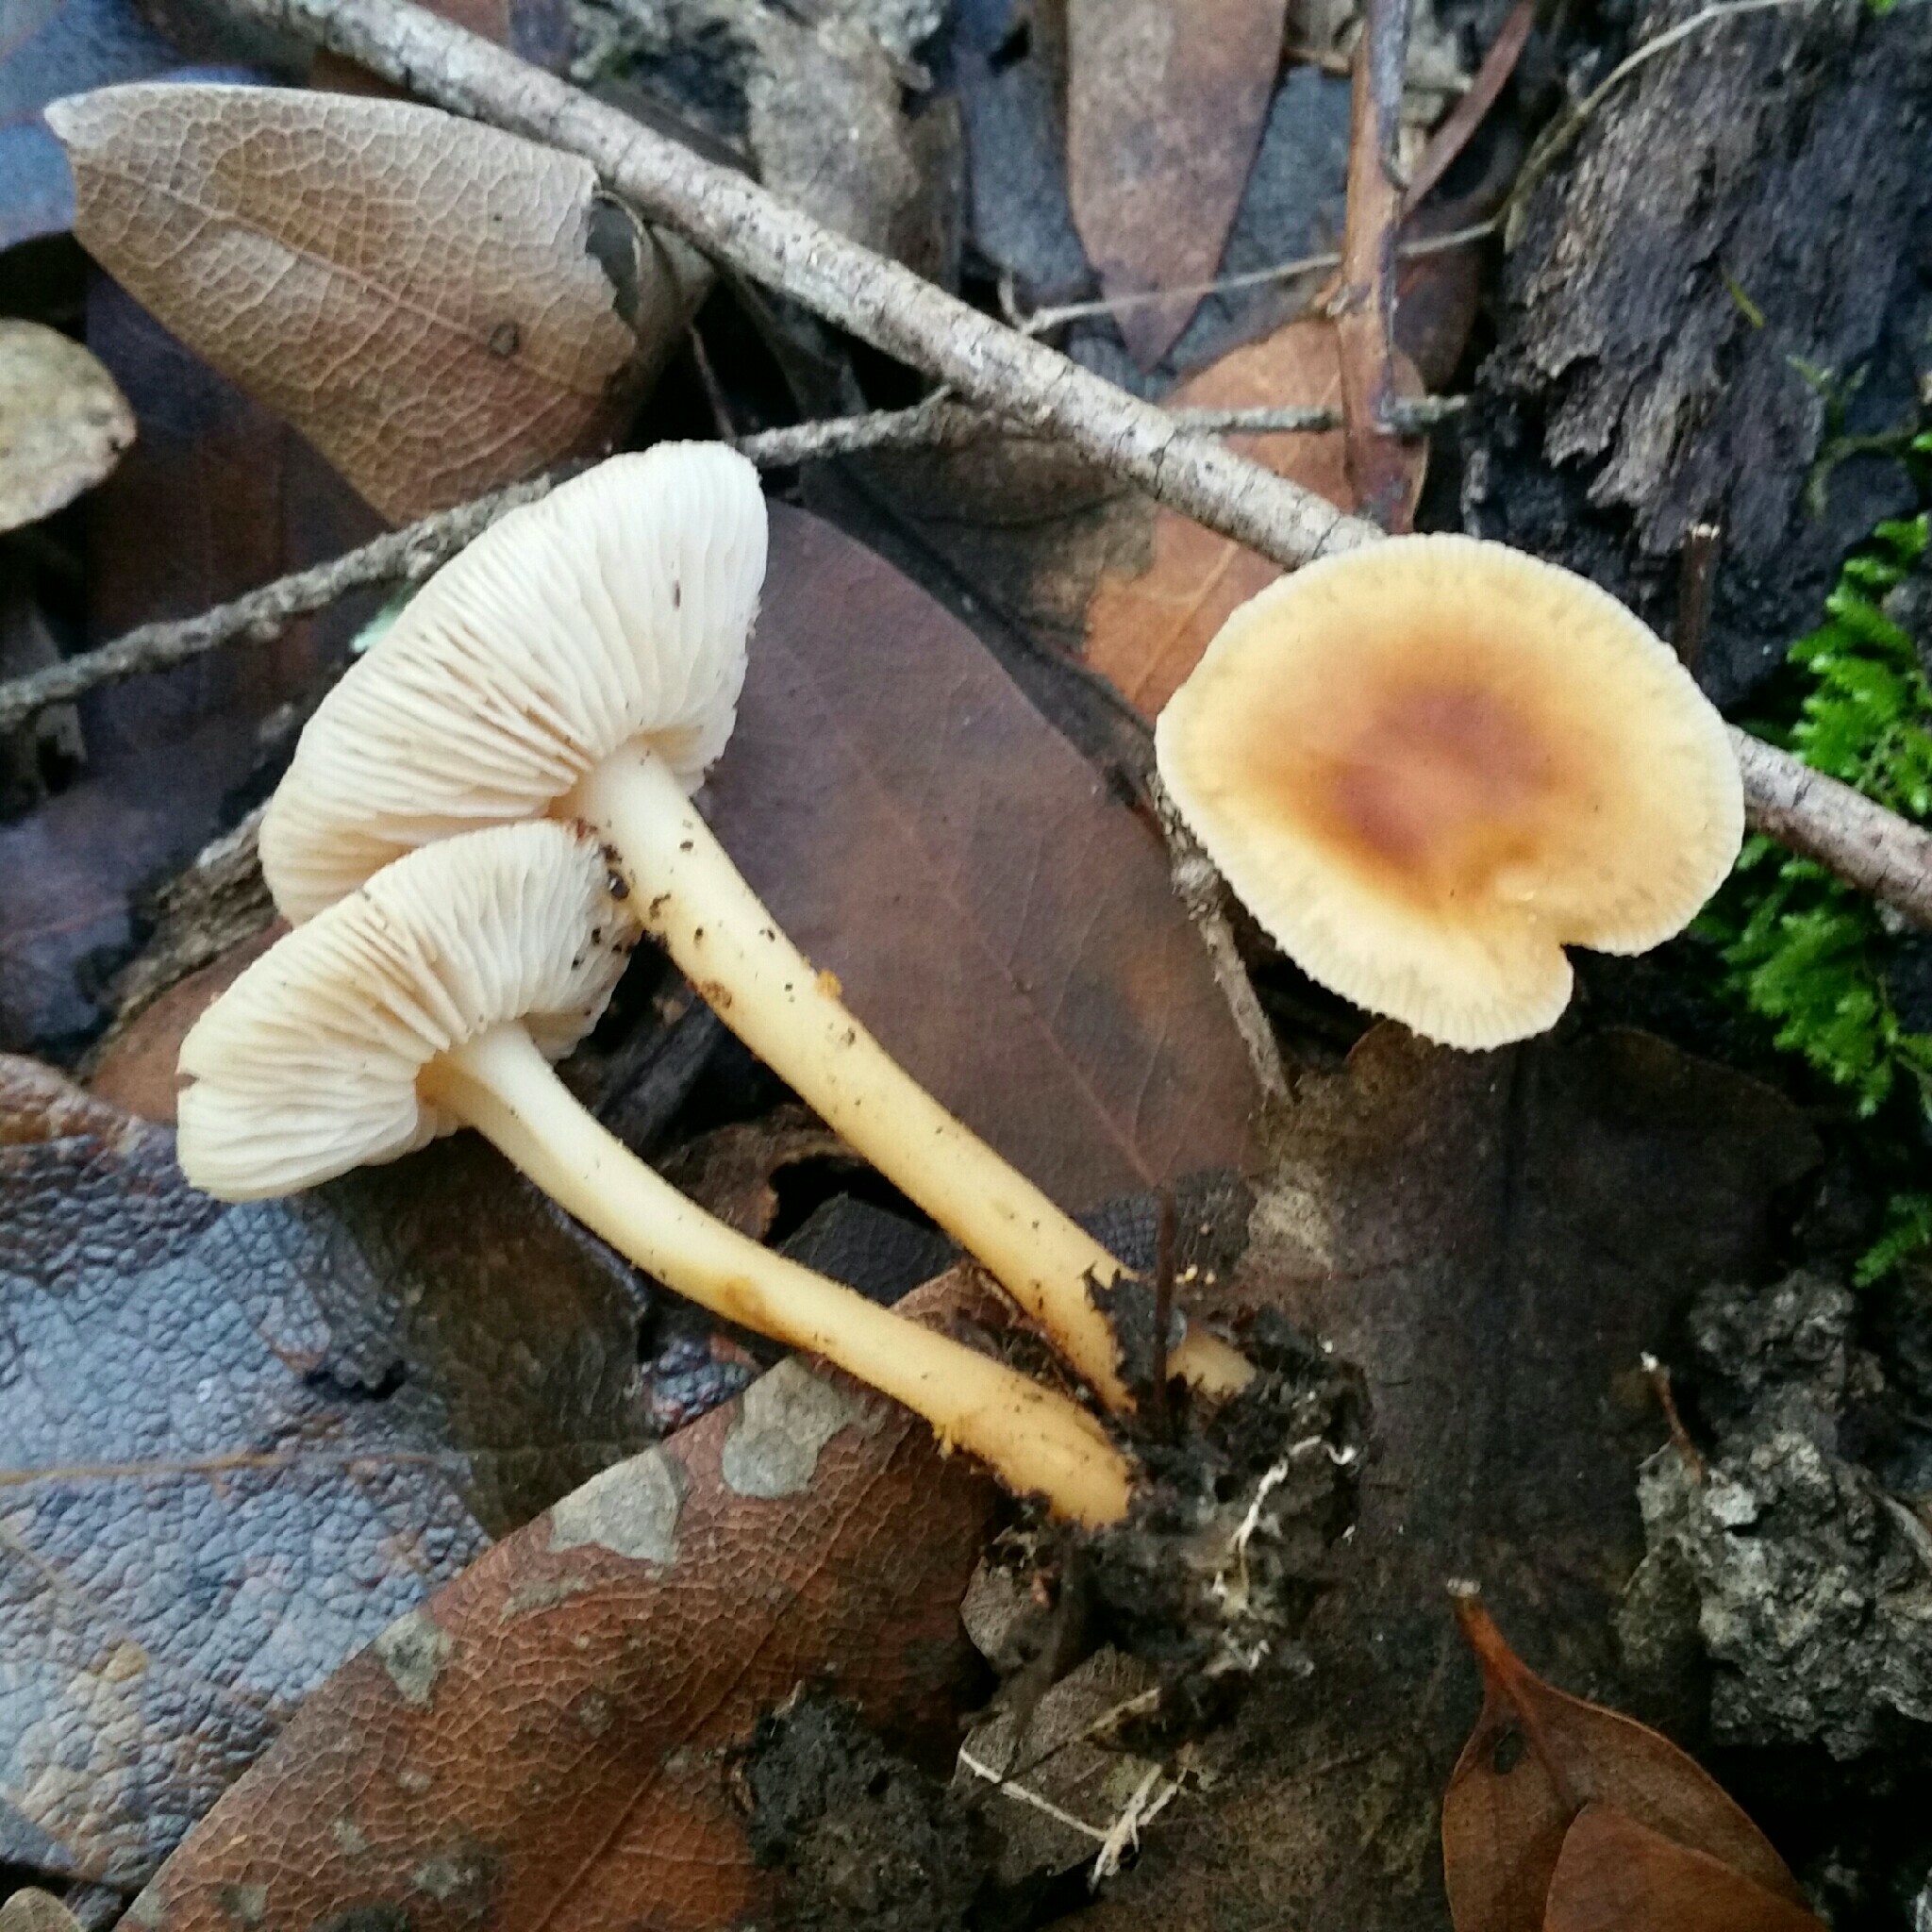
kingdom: Fungi
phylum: Basidiomycota
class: Agaricomycetes
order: Agaricales
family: Omphalotaceae
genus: Gymnopus
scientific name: Gymnopus dryophilus
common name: Penny top
